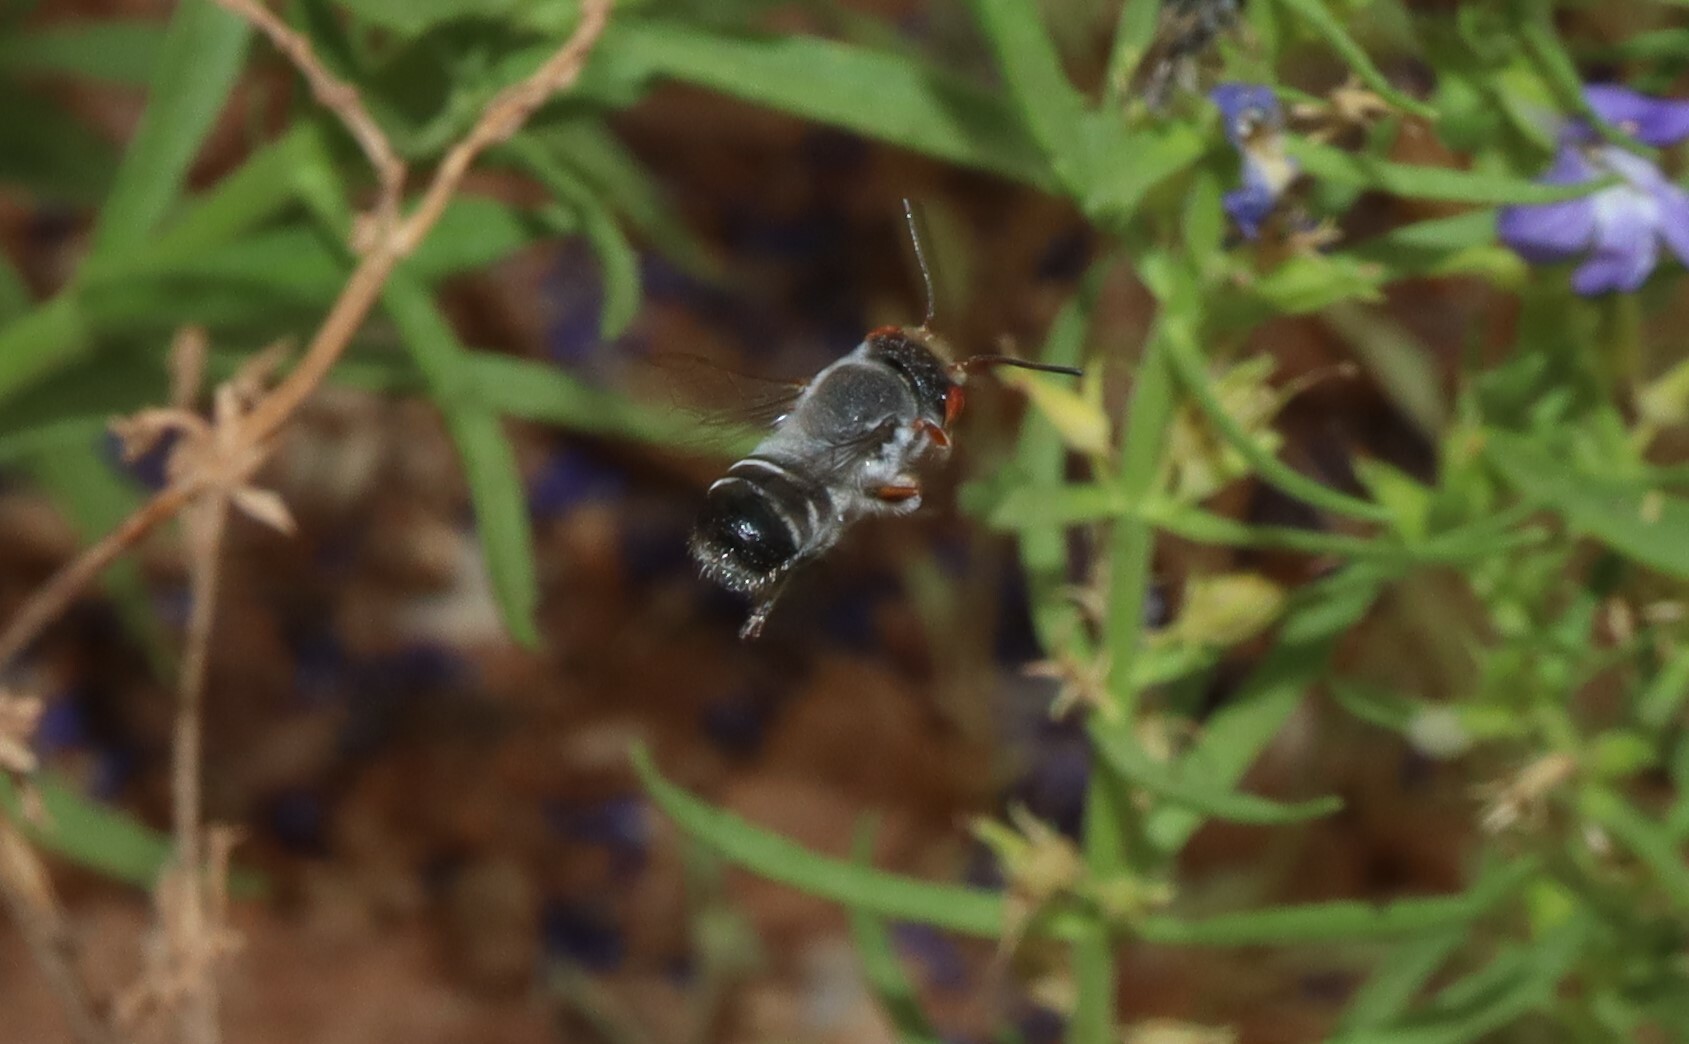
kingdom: Animalia
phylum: Arthropoda
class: Insecta
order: Hymenoptera
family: Megachilidae
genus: Megachile
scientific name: Megachile aurifrons
